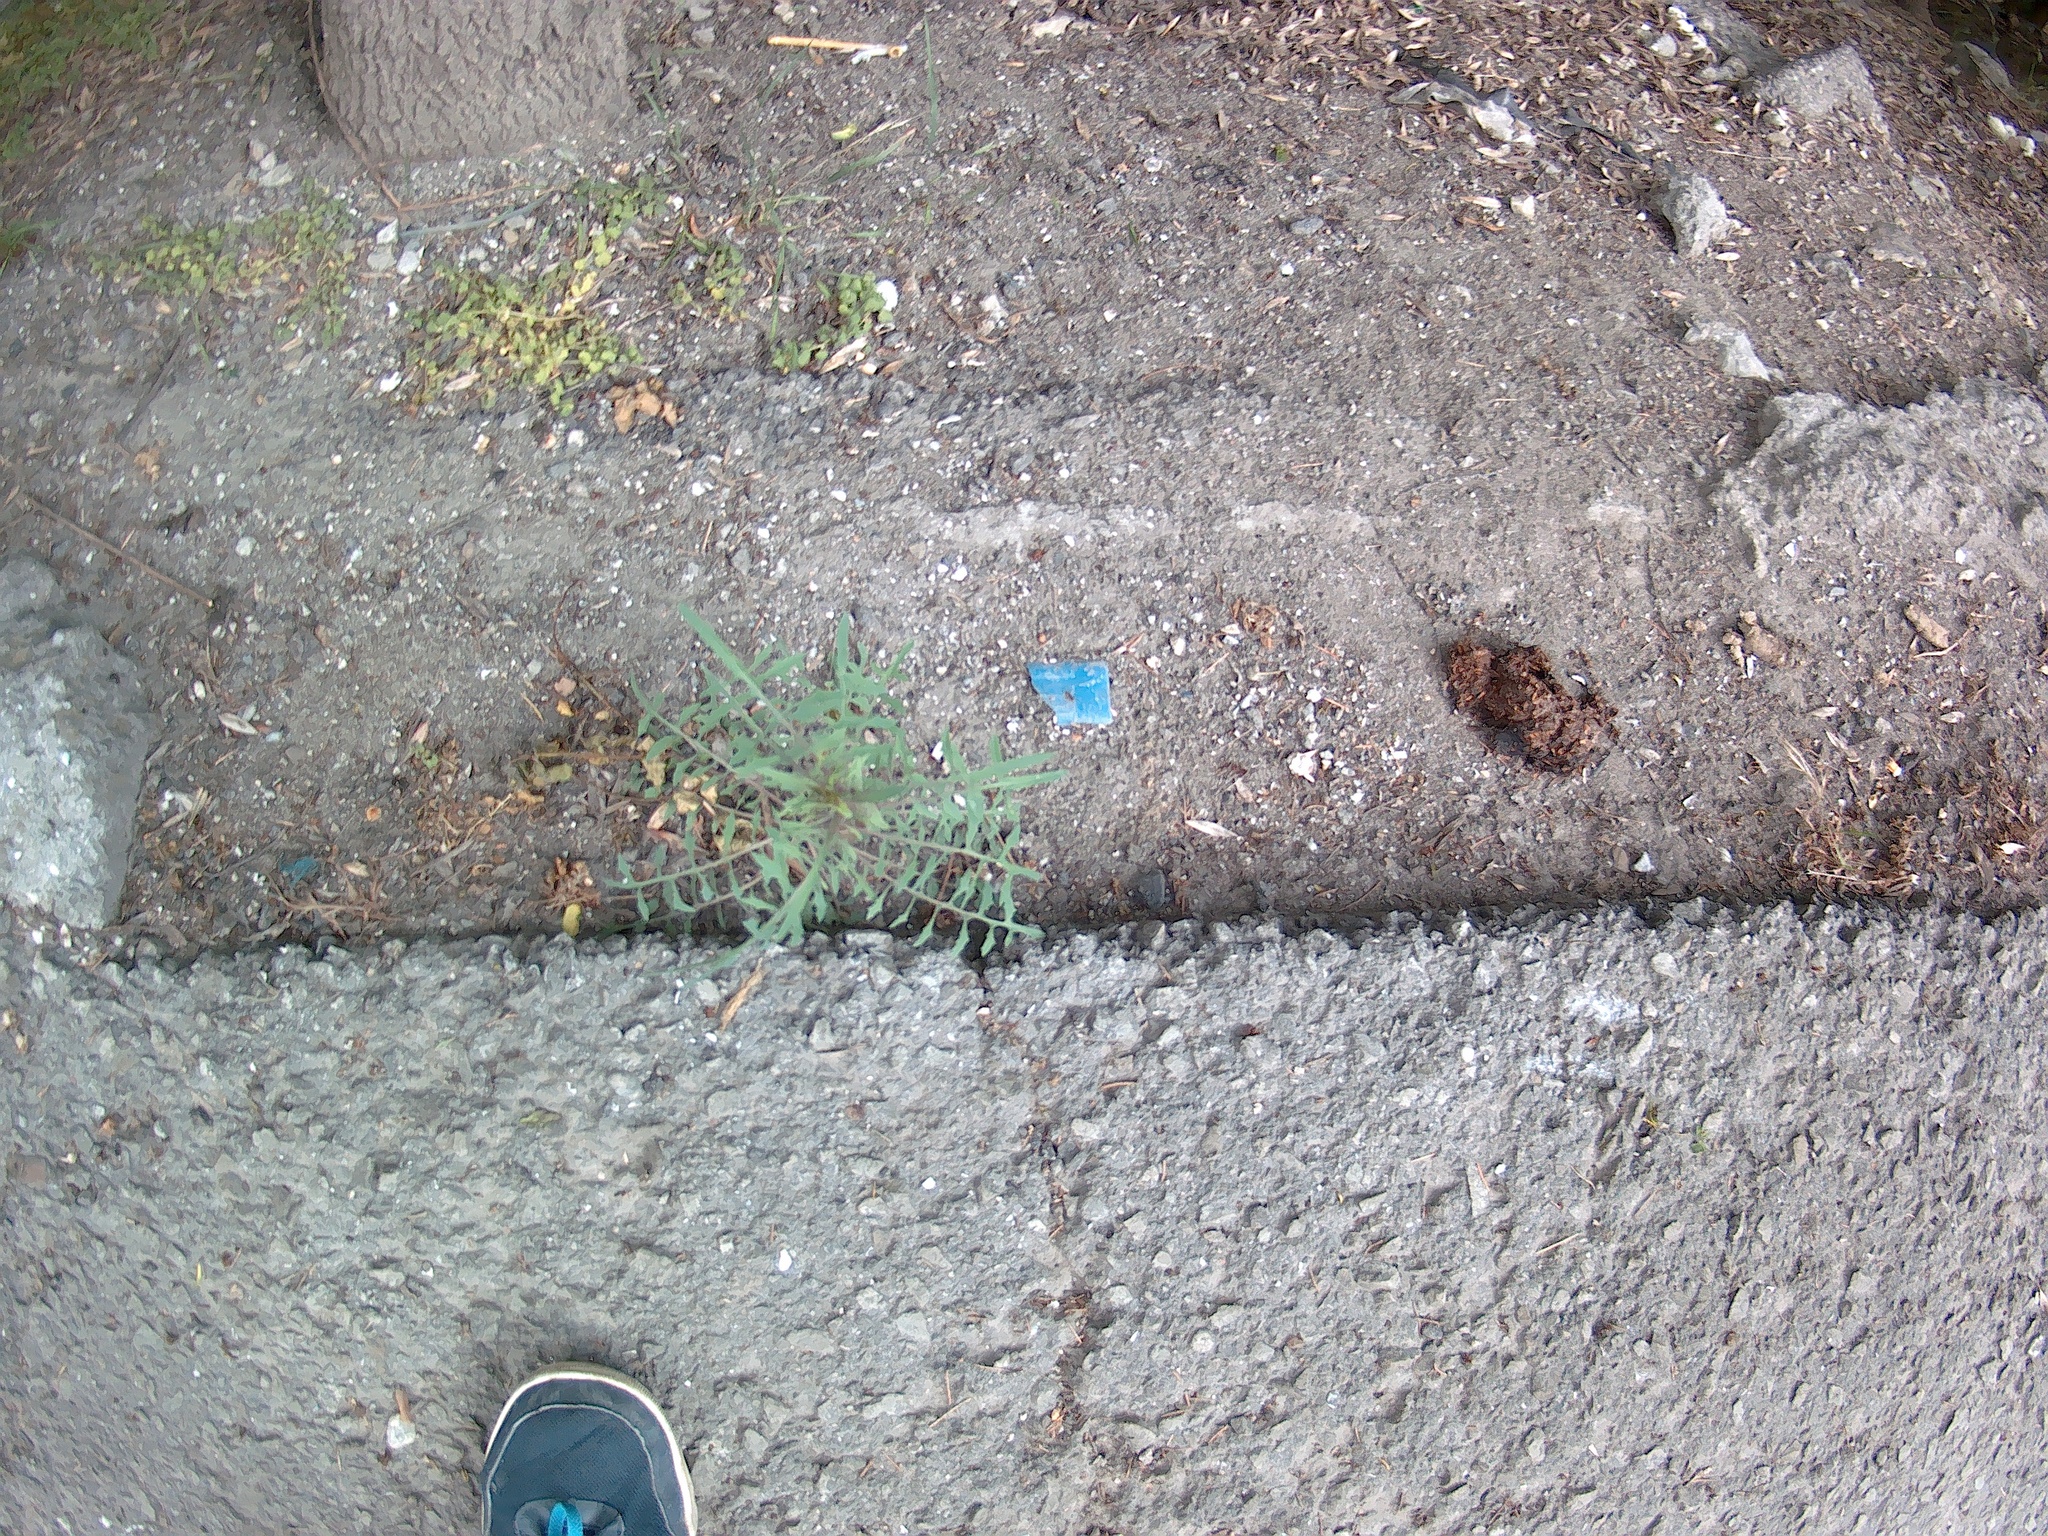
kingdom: Plantae
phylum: Tracheophyta
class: Magnoliopsida
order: Asterales
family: Asteraceae
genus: Lactuca
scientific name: Lactuca viminea
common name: Pliant lettuce
